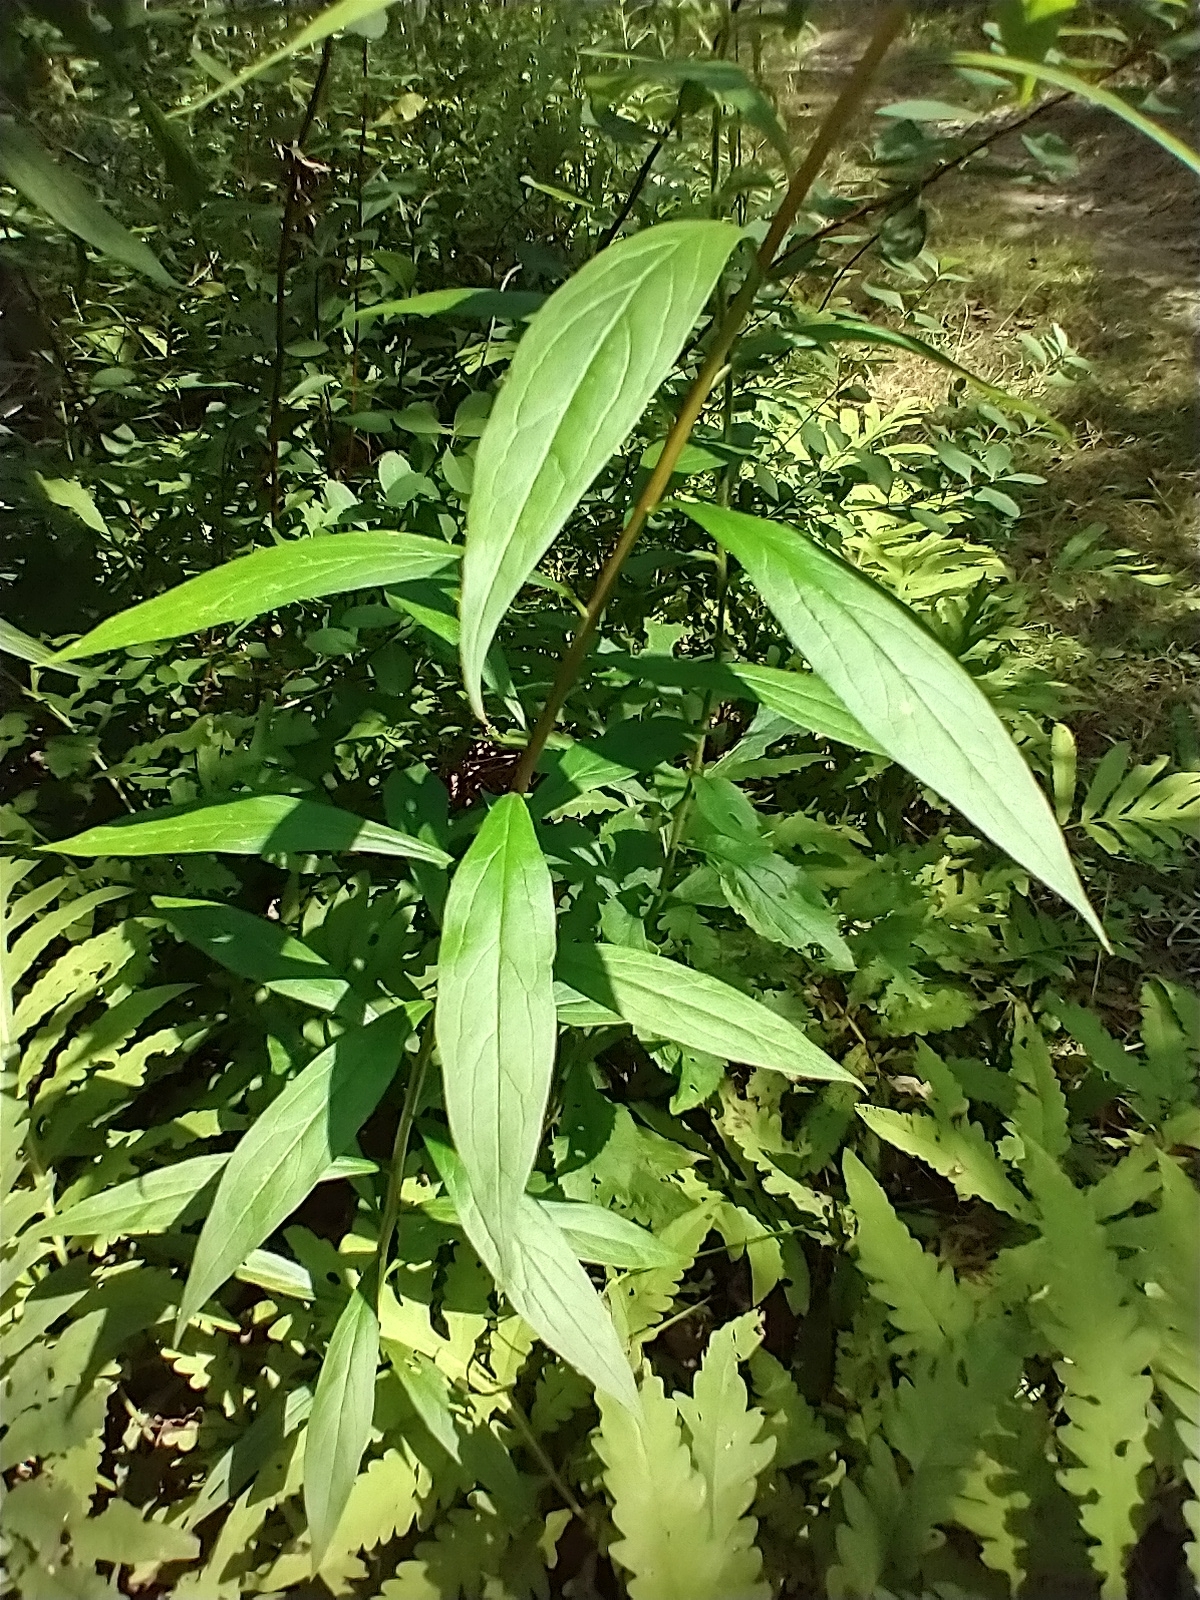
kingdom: Plantae
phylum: Tracheophyta
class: Magnoliopsida
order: Asterales
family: Asteraceae
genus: Doellingeria
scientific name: Doellingeria umbellata
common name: Flat-top white aster
